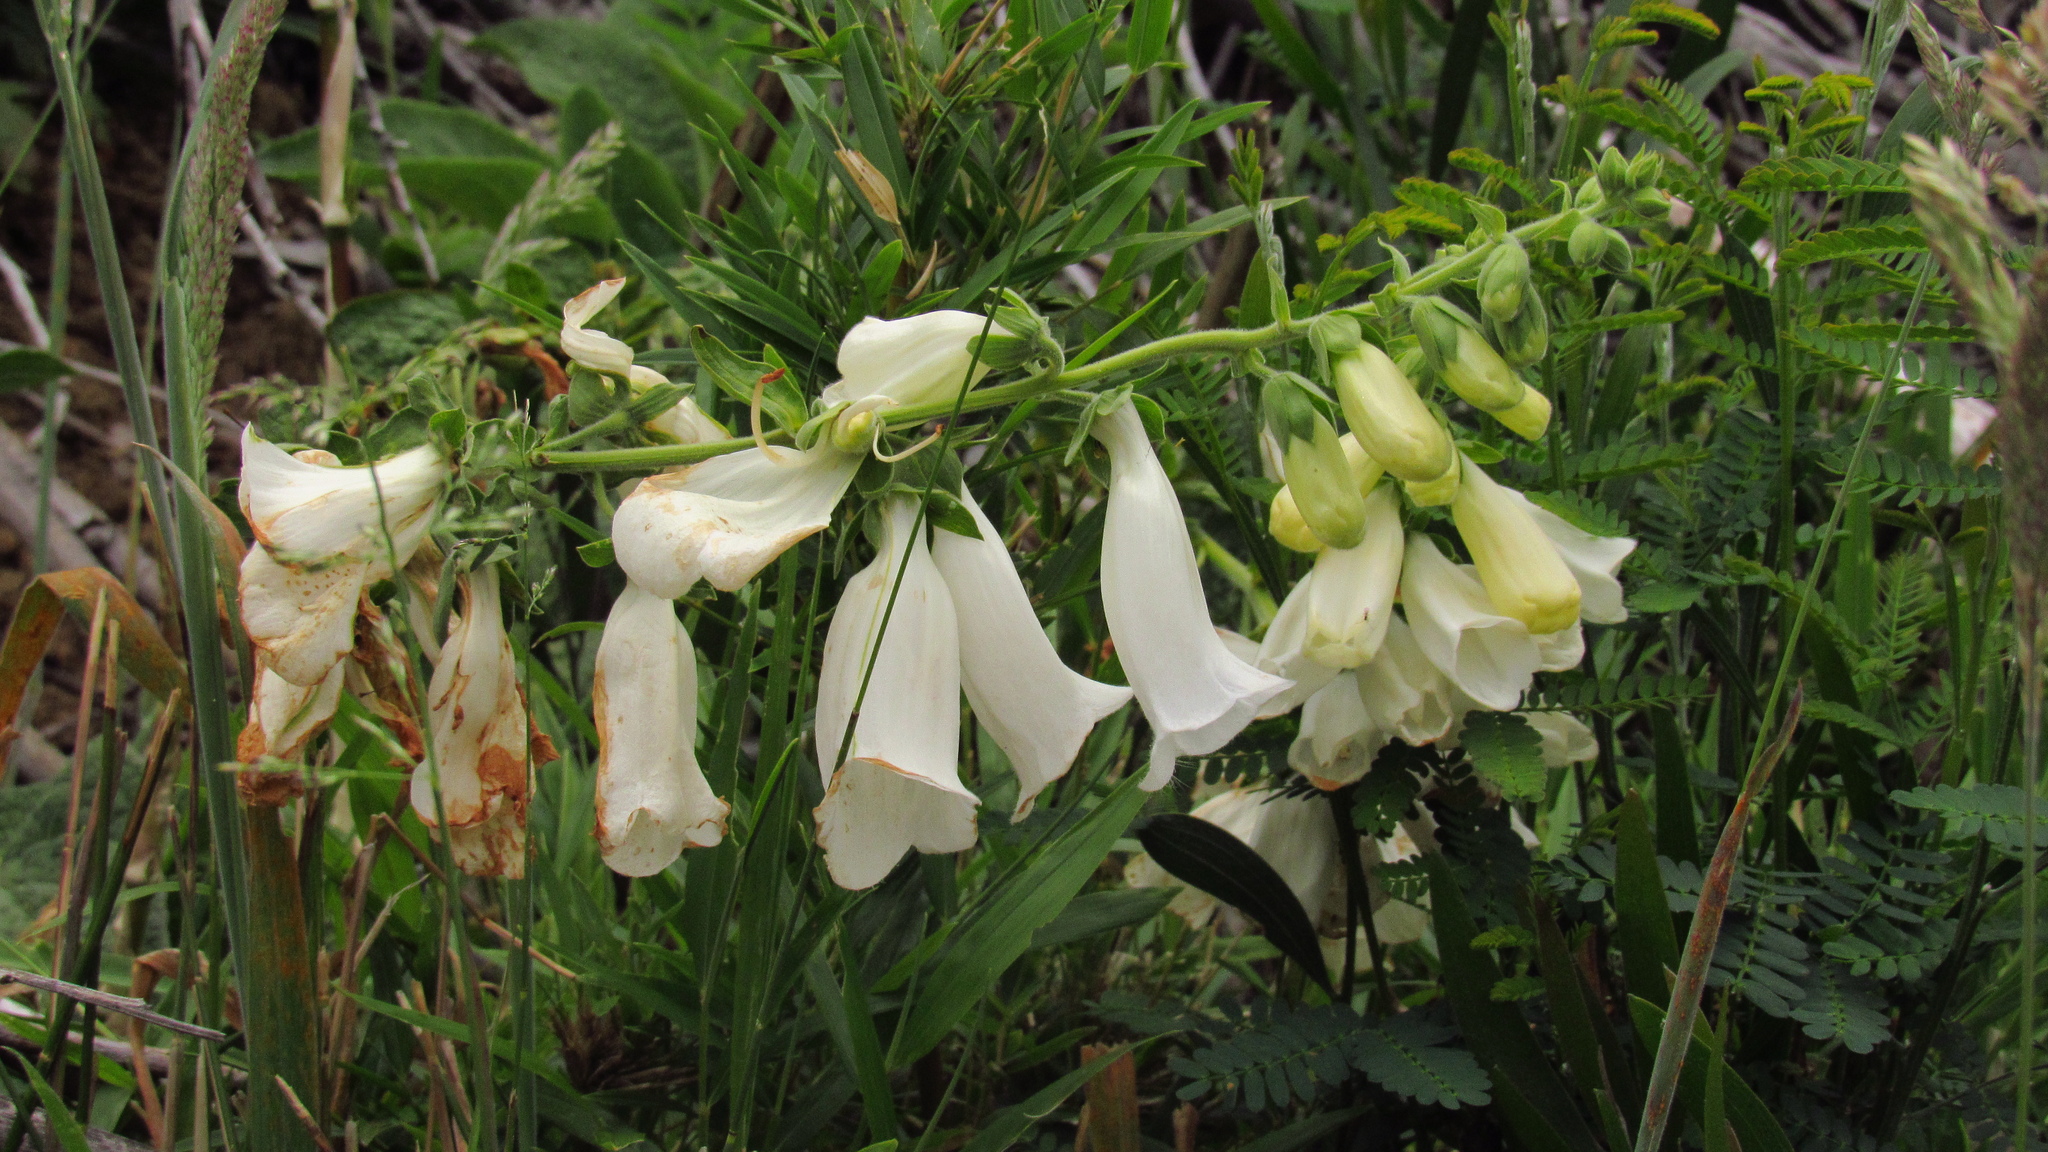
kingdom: Plantae
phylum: Tracheophyta
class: Magnoliopsida
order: Lamiales
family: Plantaginaceae
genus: Digitalis
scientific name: Digitalis purpurea
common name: Foxglove
